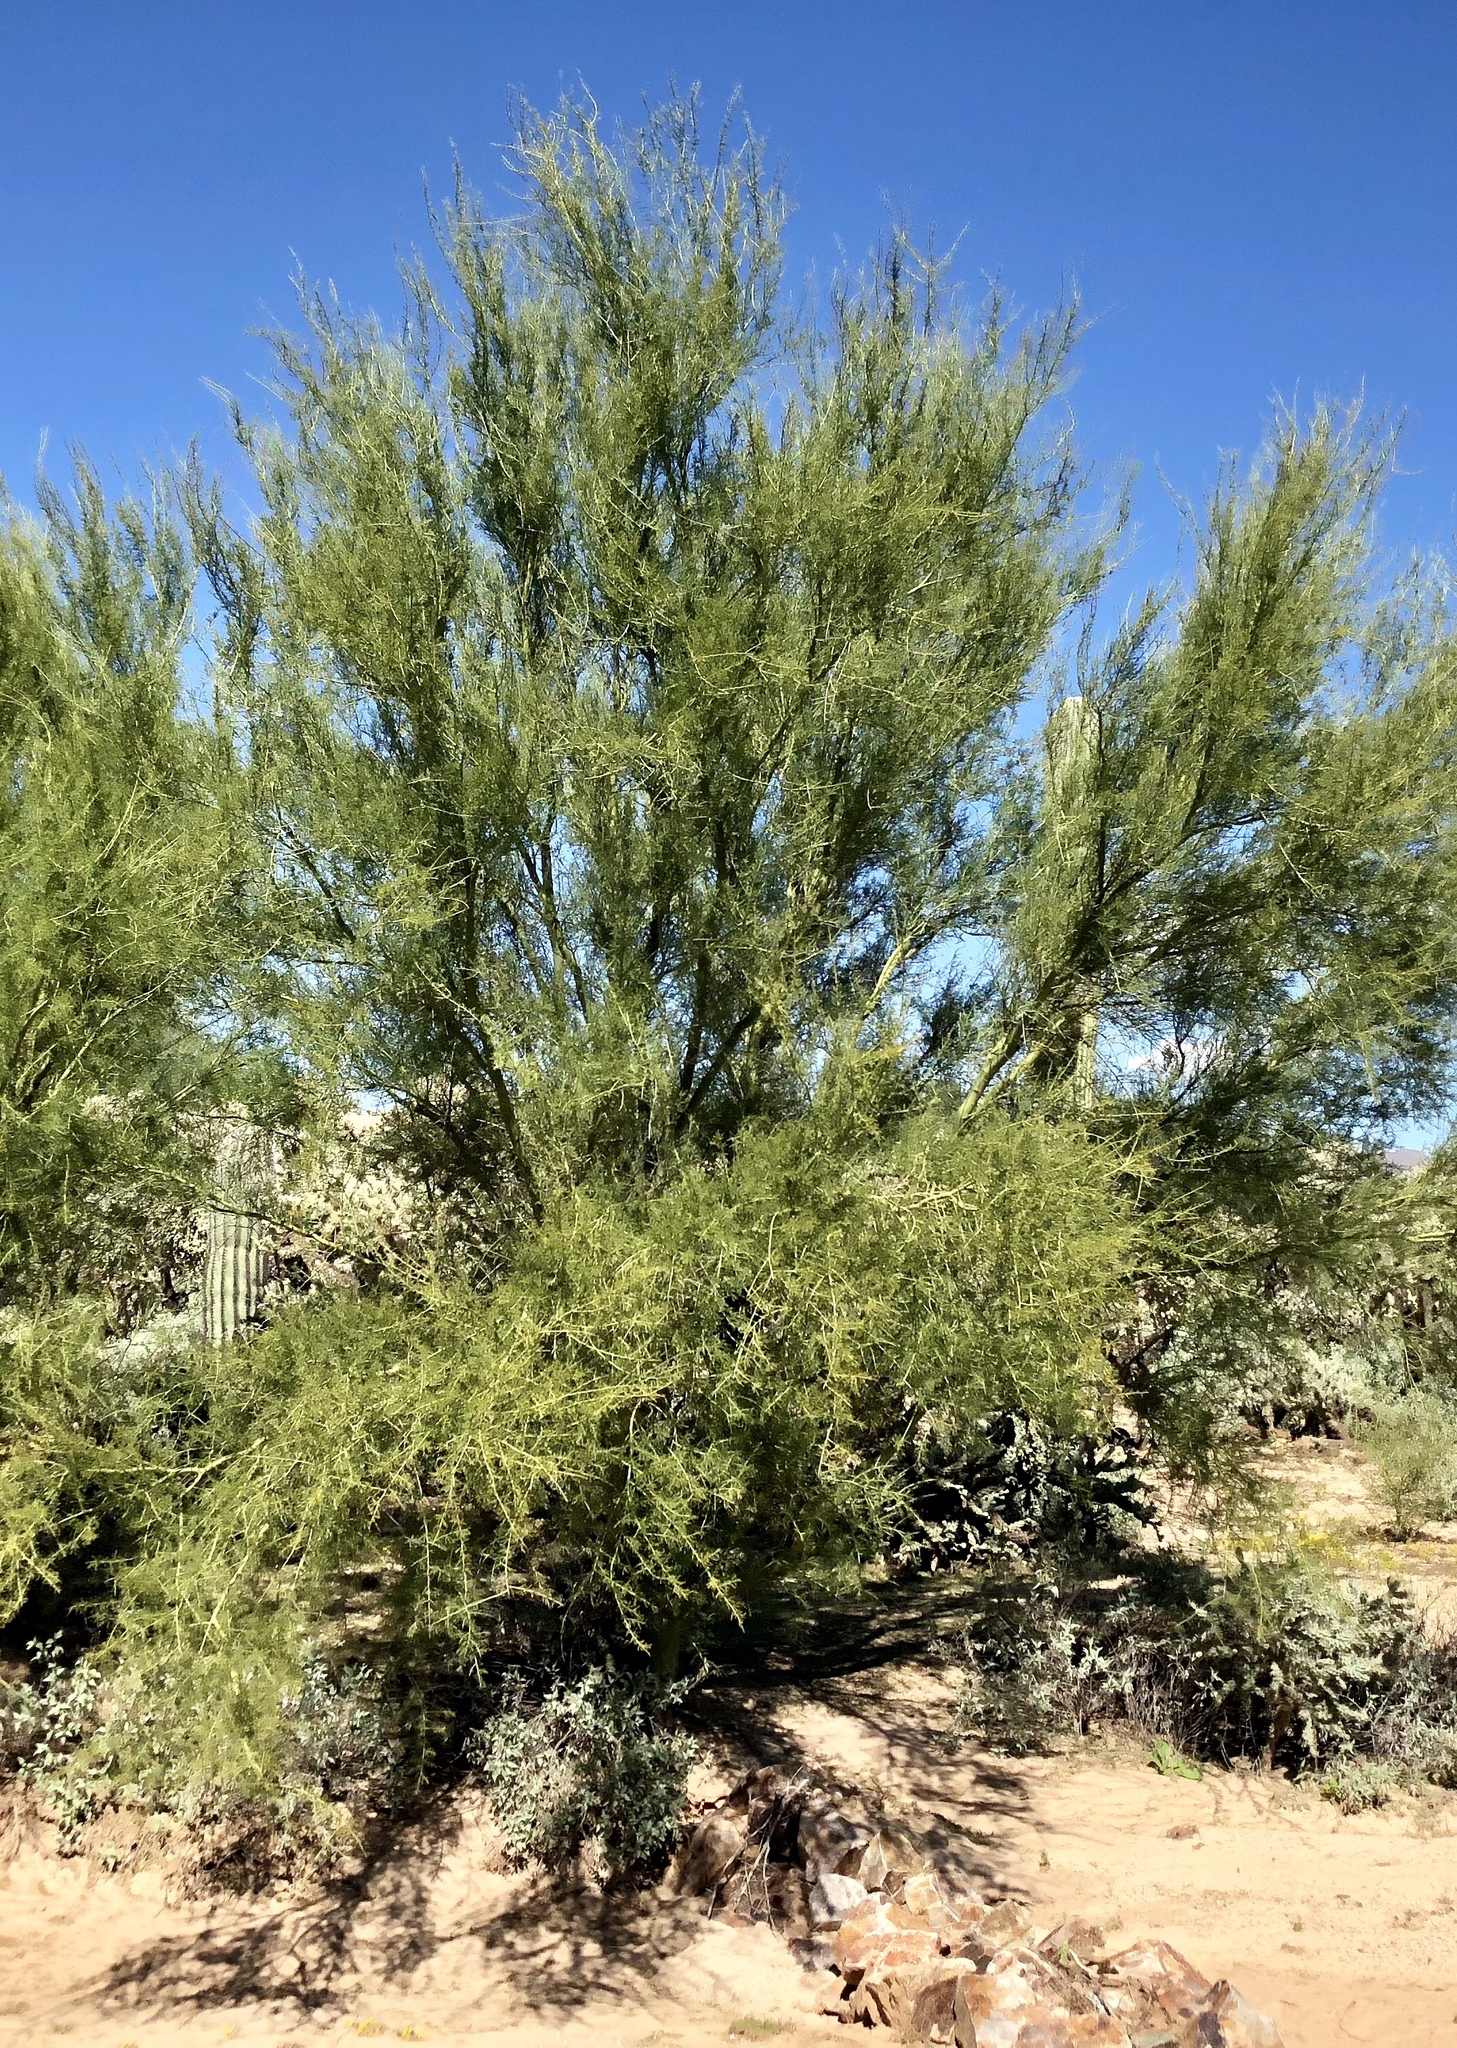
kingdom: Plantae
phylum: Tracheophyta
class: Magnoliopsida
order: Fabales
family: Fabaceae
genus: Parkinsonia
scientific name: Parkinsonia microphylla
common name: Yellow paloverde
